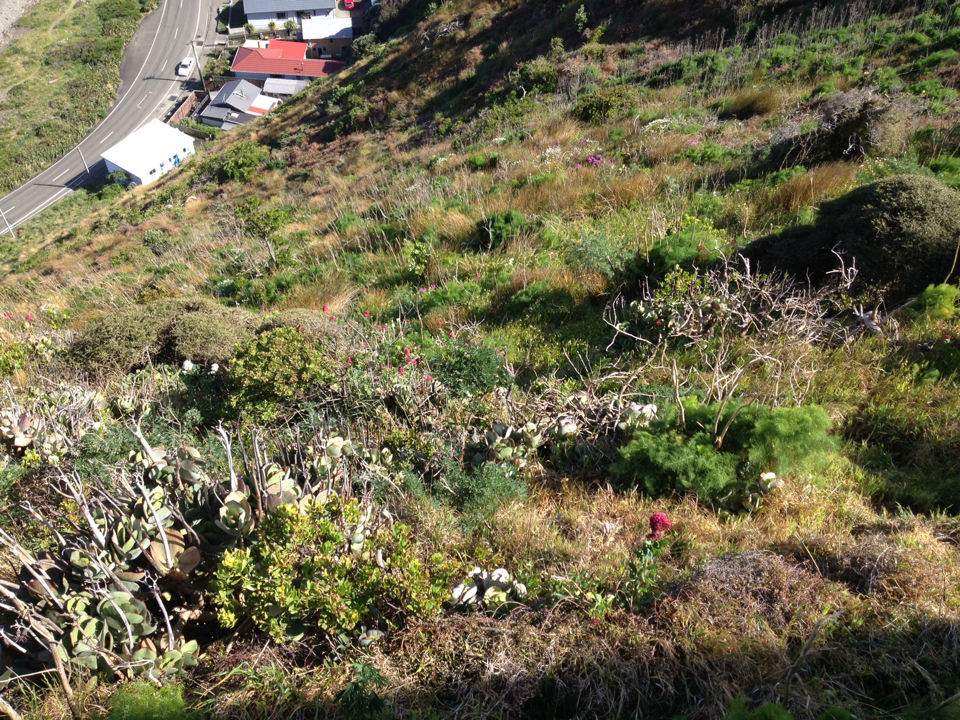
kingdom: Plantae
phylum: Tracheophyta
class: Magnoliopsida
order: Asterales
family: Asteraceae
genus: Osteospermum
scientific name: Osteospermum moniliferum
